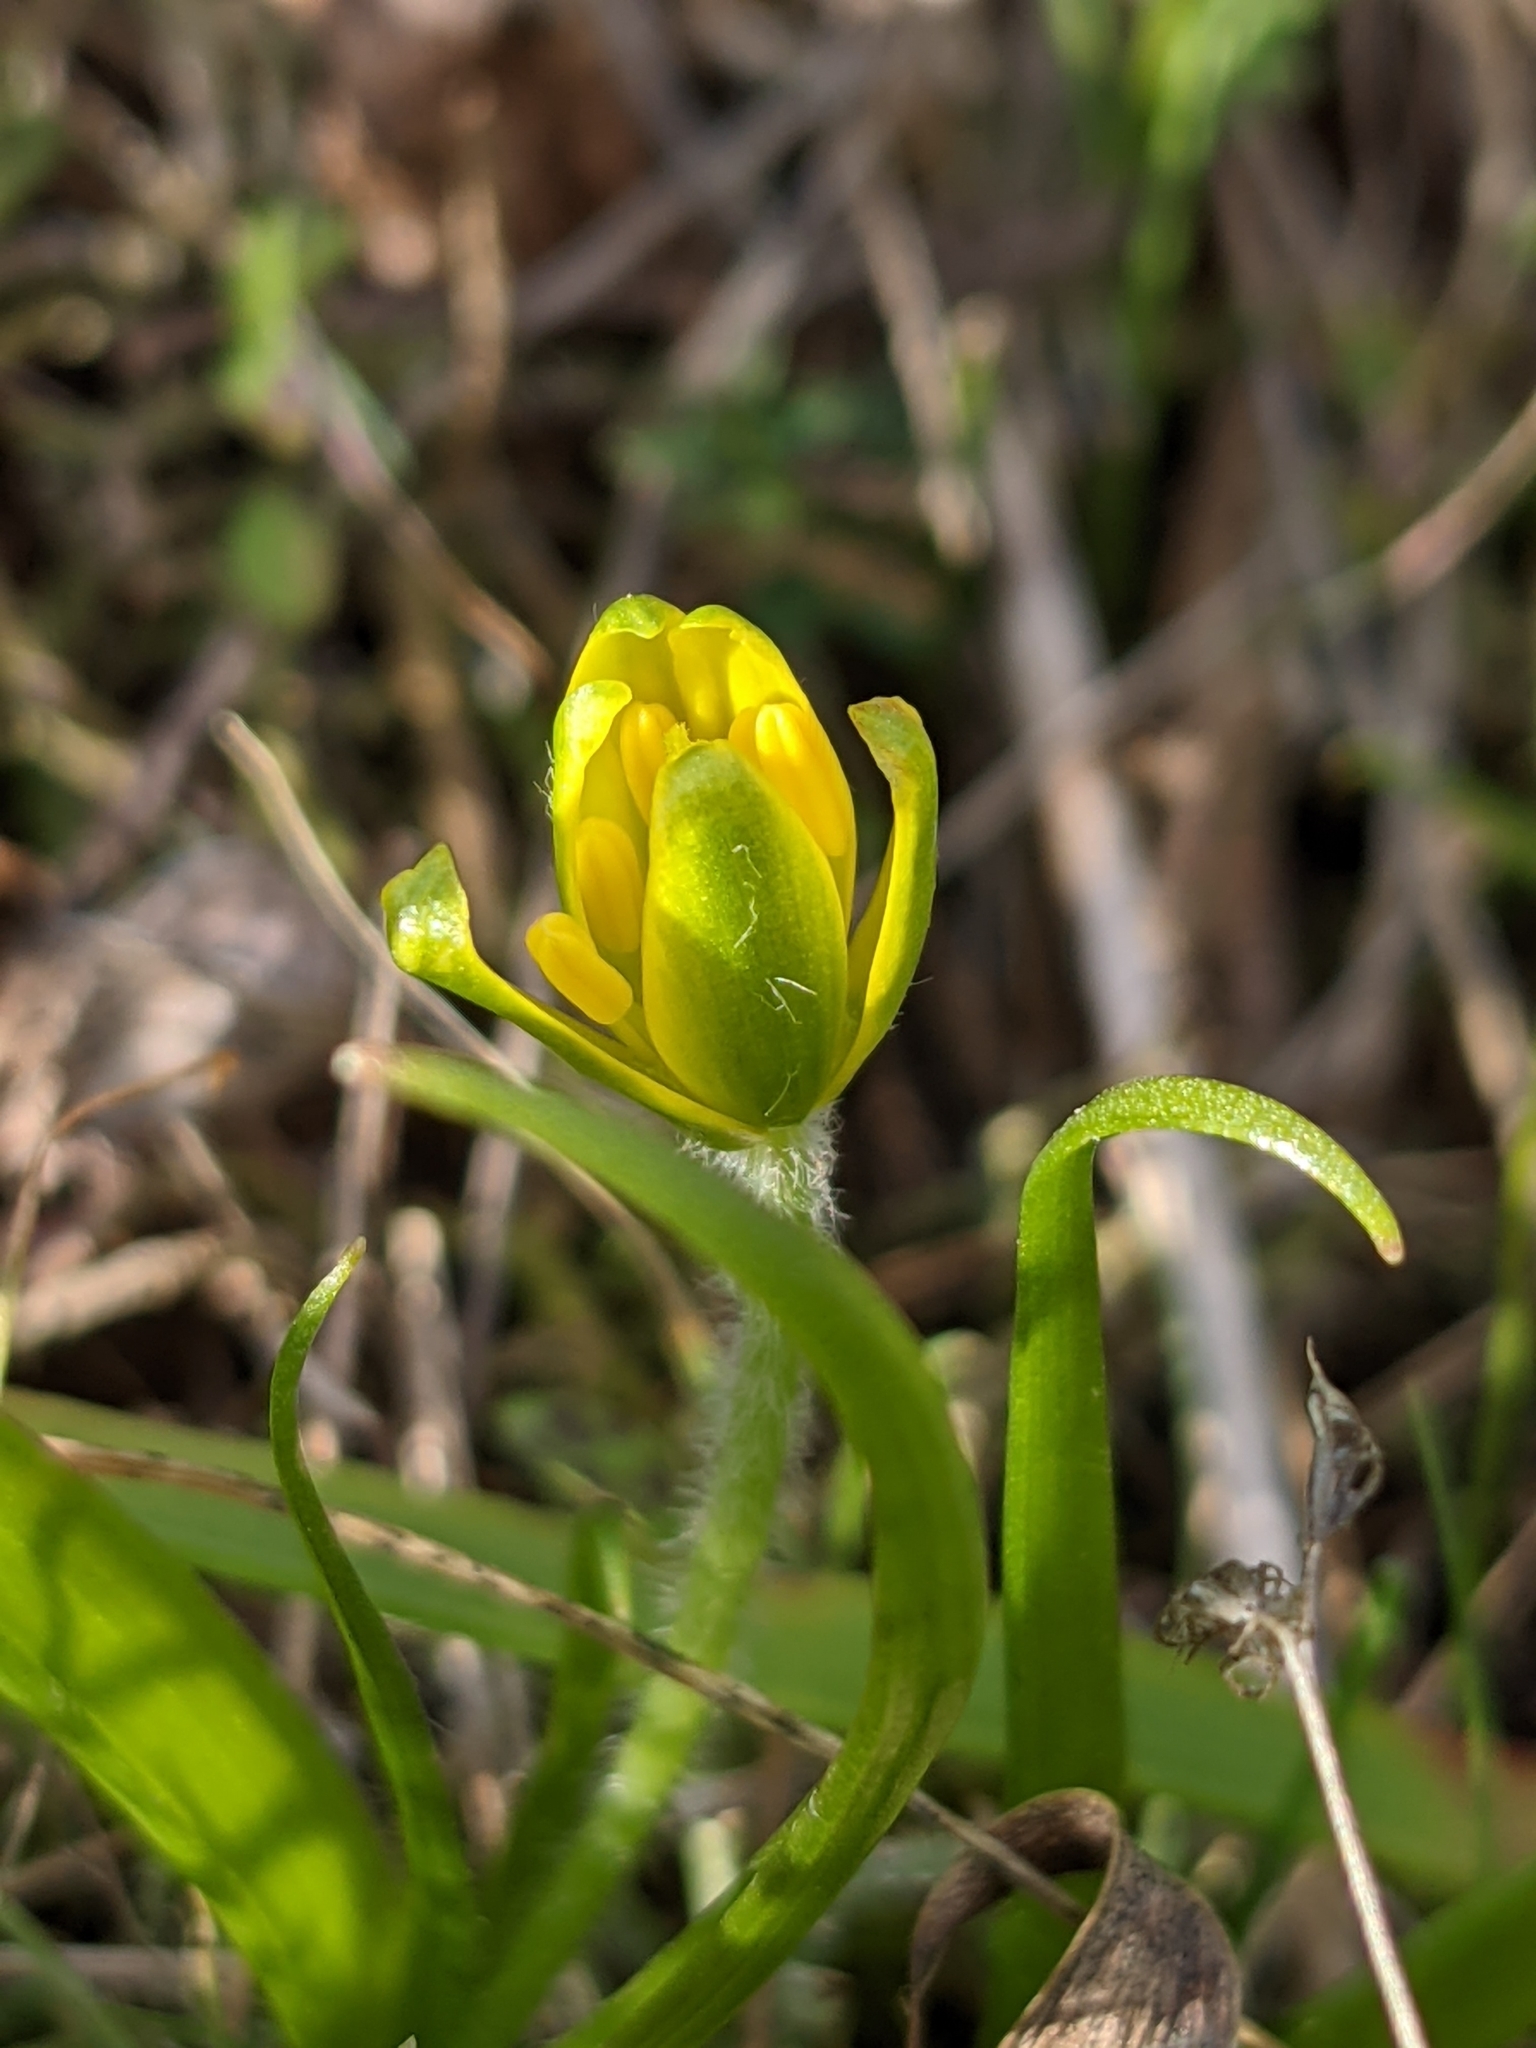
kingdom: Plantae
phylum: Tracheophyta
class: Liliopsida
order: Liliales
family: Liliaceae
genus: Gagea
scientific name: Gagea lacaitae
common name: Gagée de lacaita
